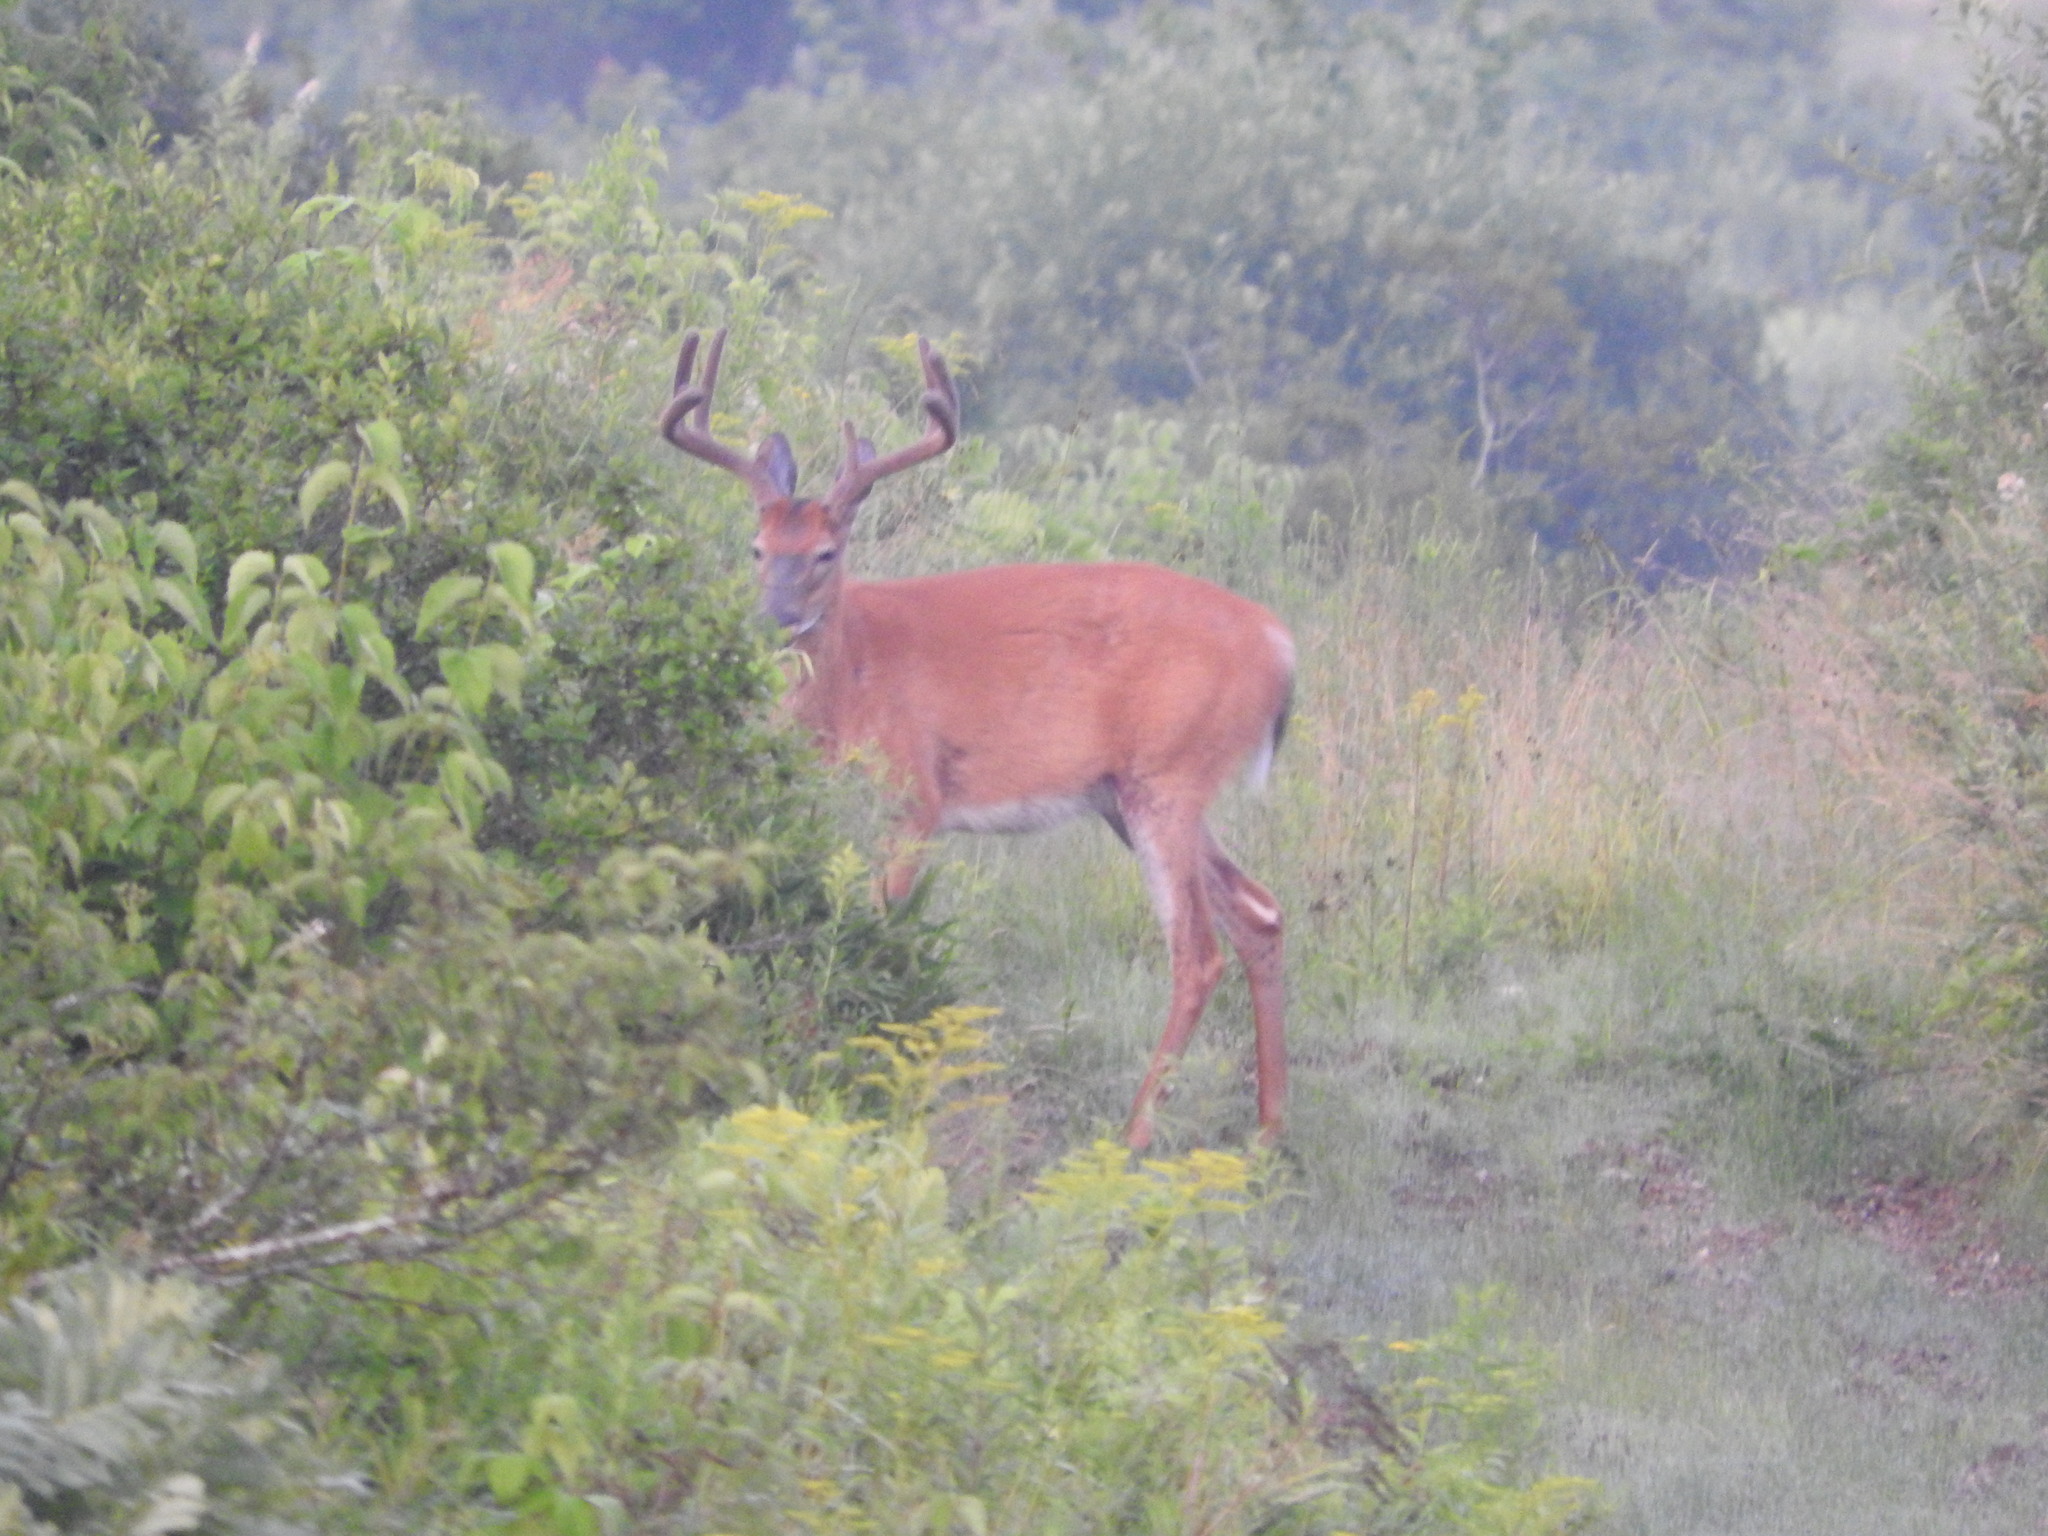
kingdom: Animalia
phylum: Chordata
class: Mammalia
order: Artiodactyla
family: Cervidae
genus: Odocoileus
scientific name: Odocoileus virginianus
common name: White-tailed deer
